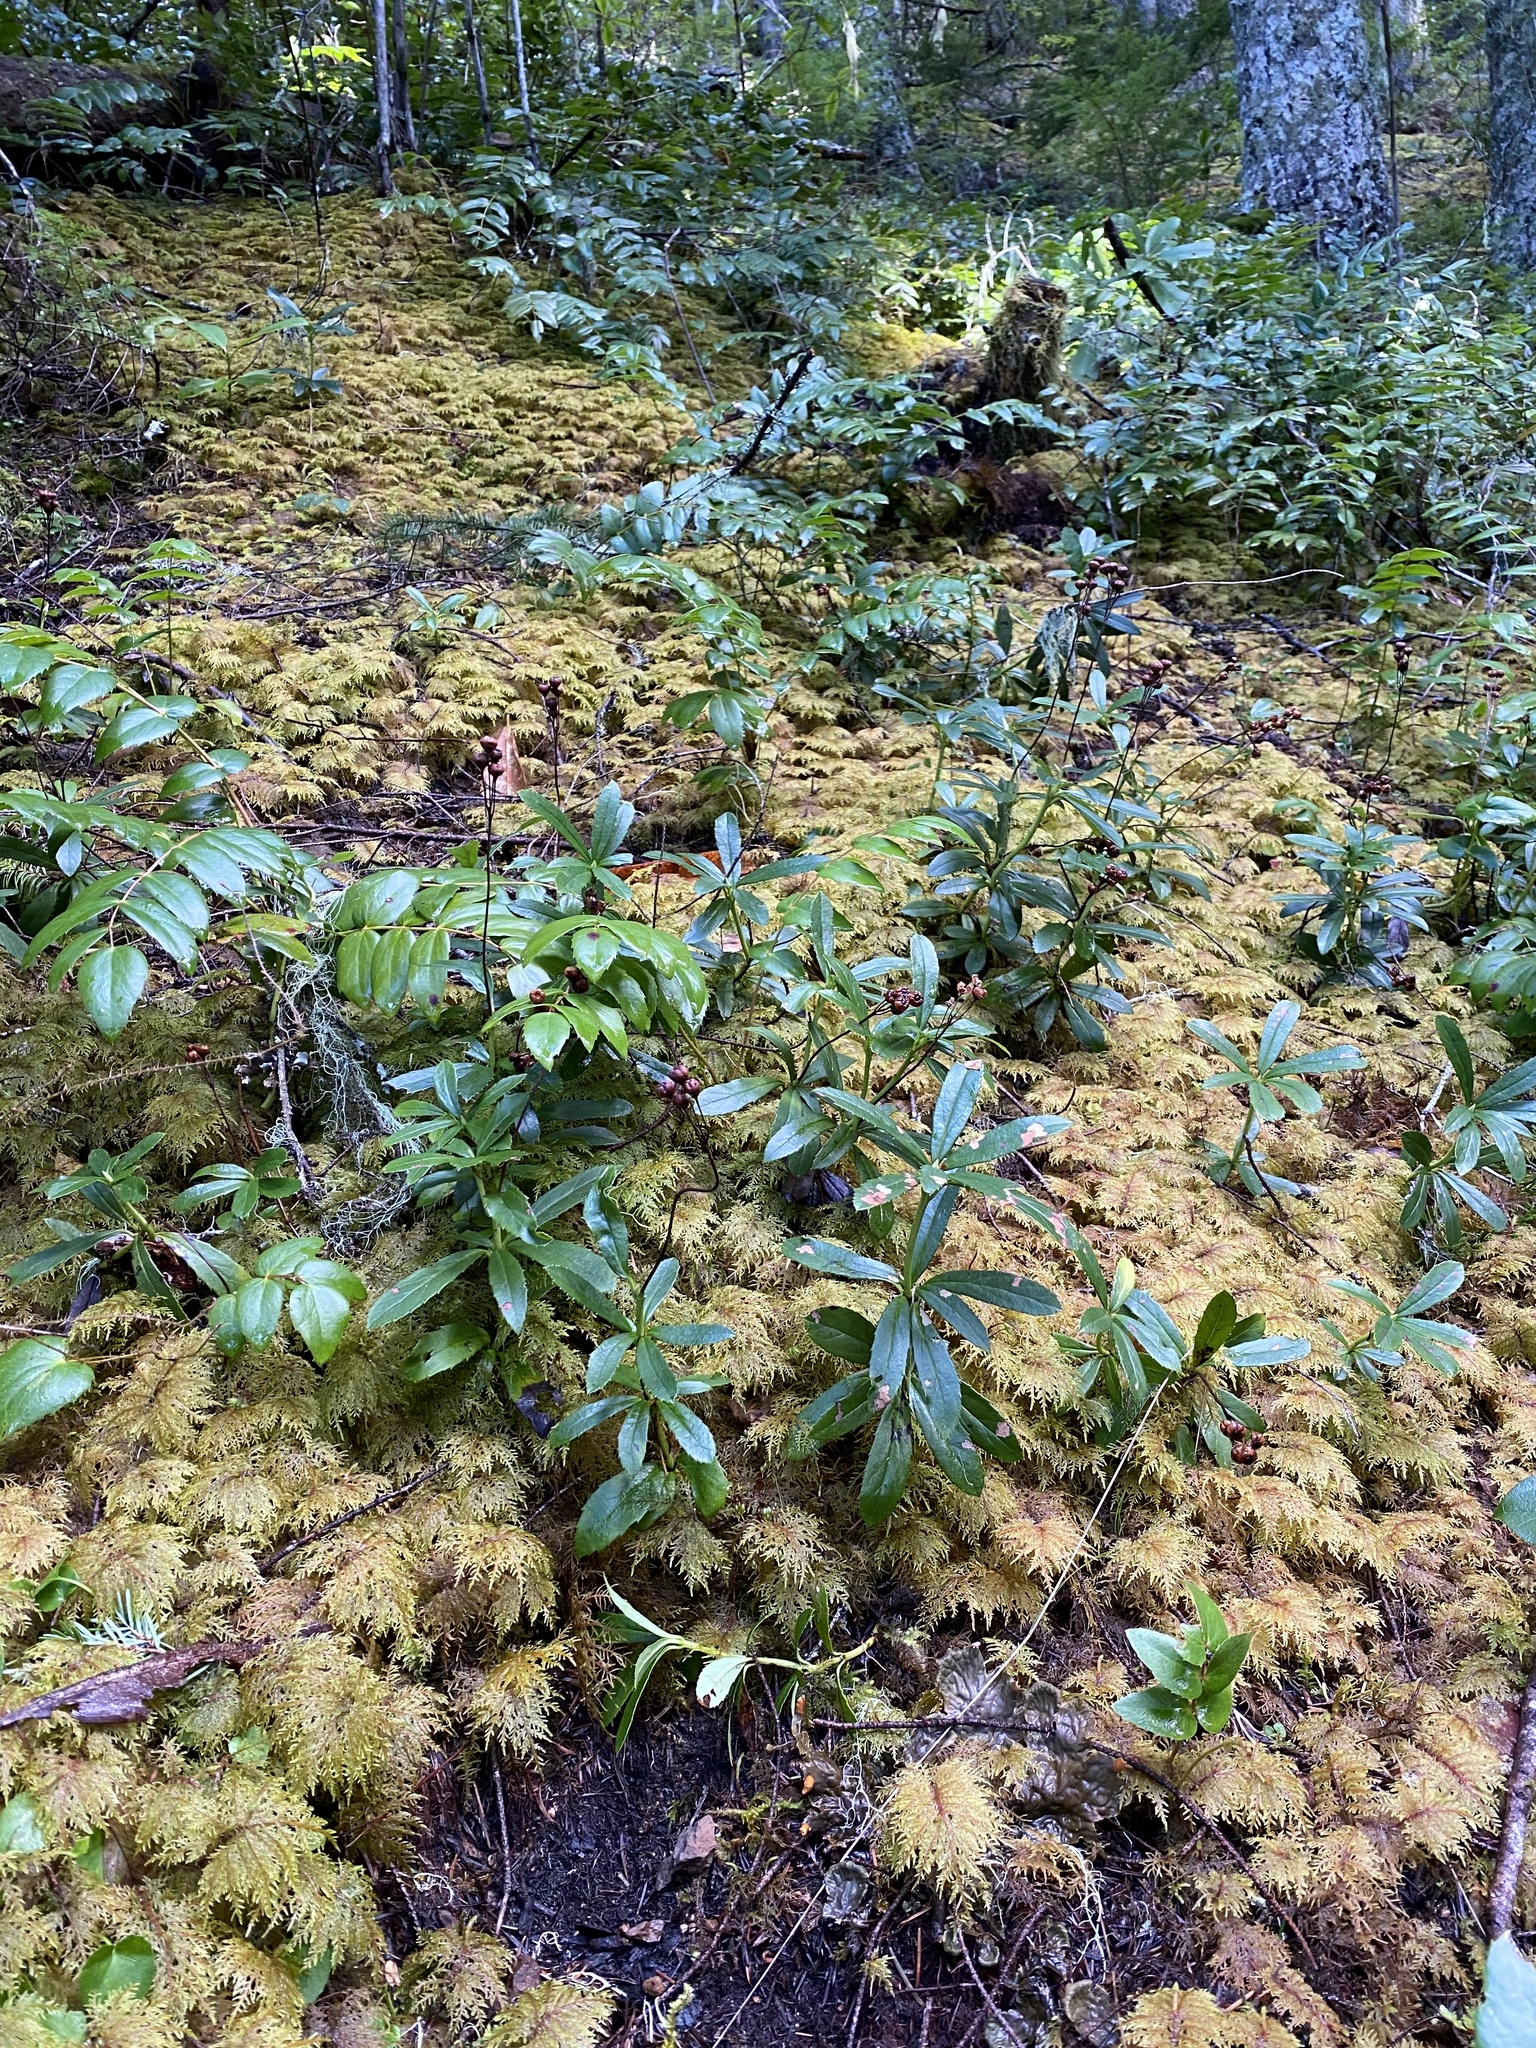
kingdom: Plantae
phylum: Tracheophyta
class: Magnoliopsida
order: Ericales
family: Ericaceae
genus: Chimaphila
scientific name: Chimaphila umbellata
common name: Pipsissewa
